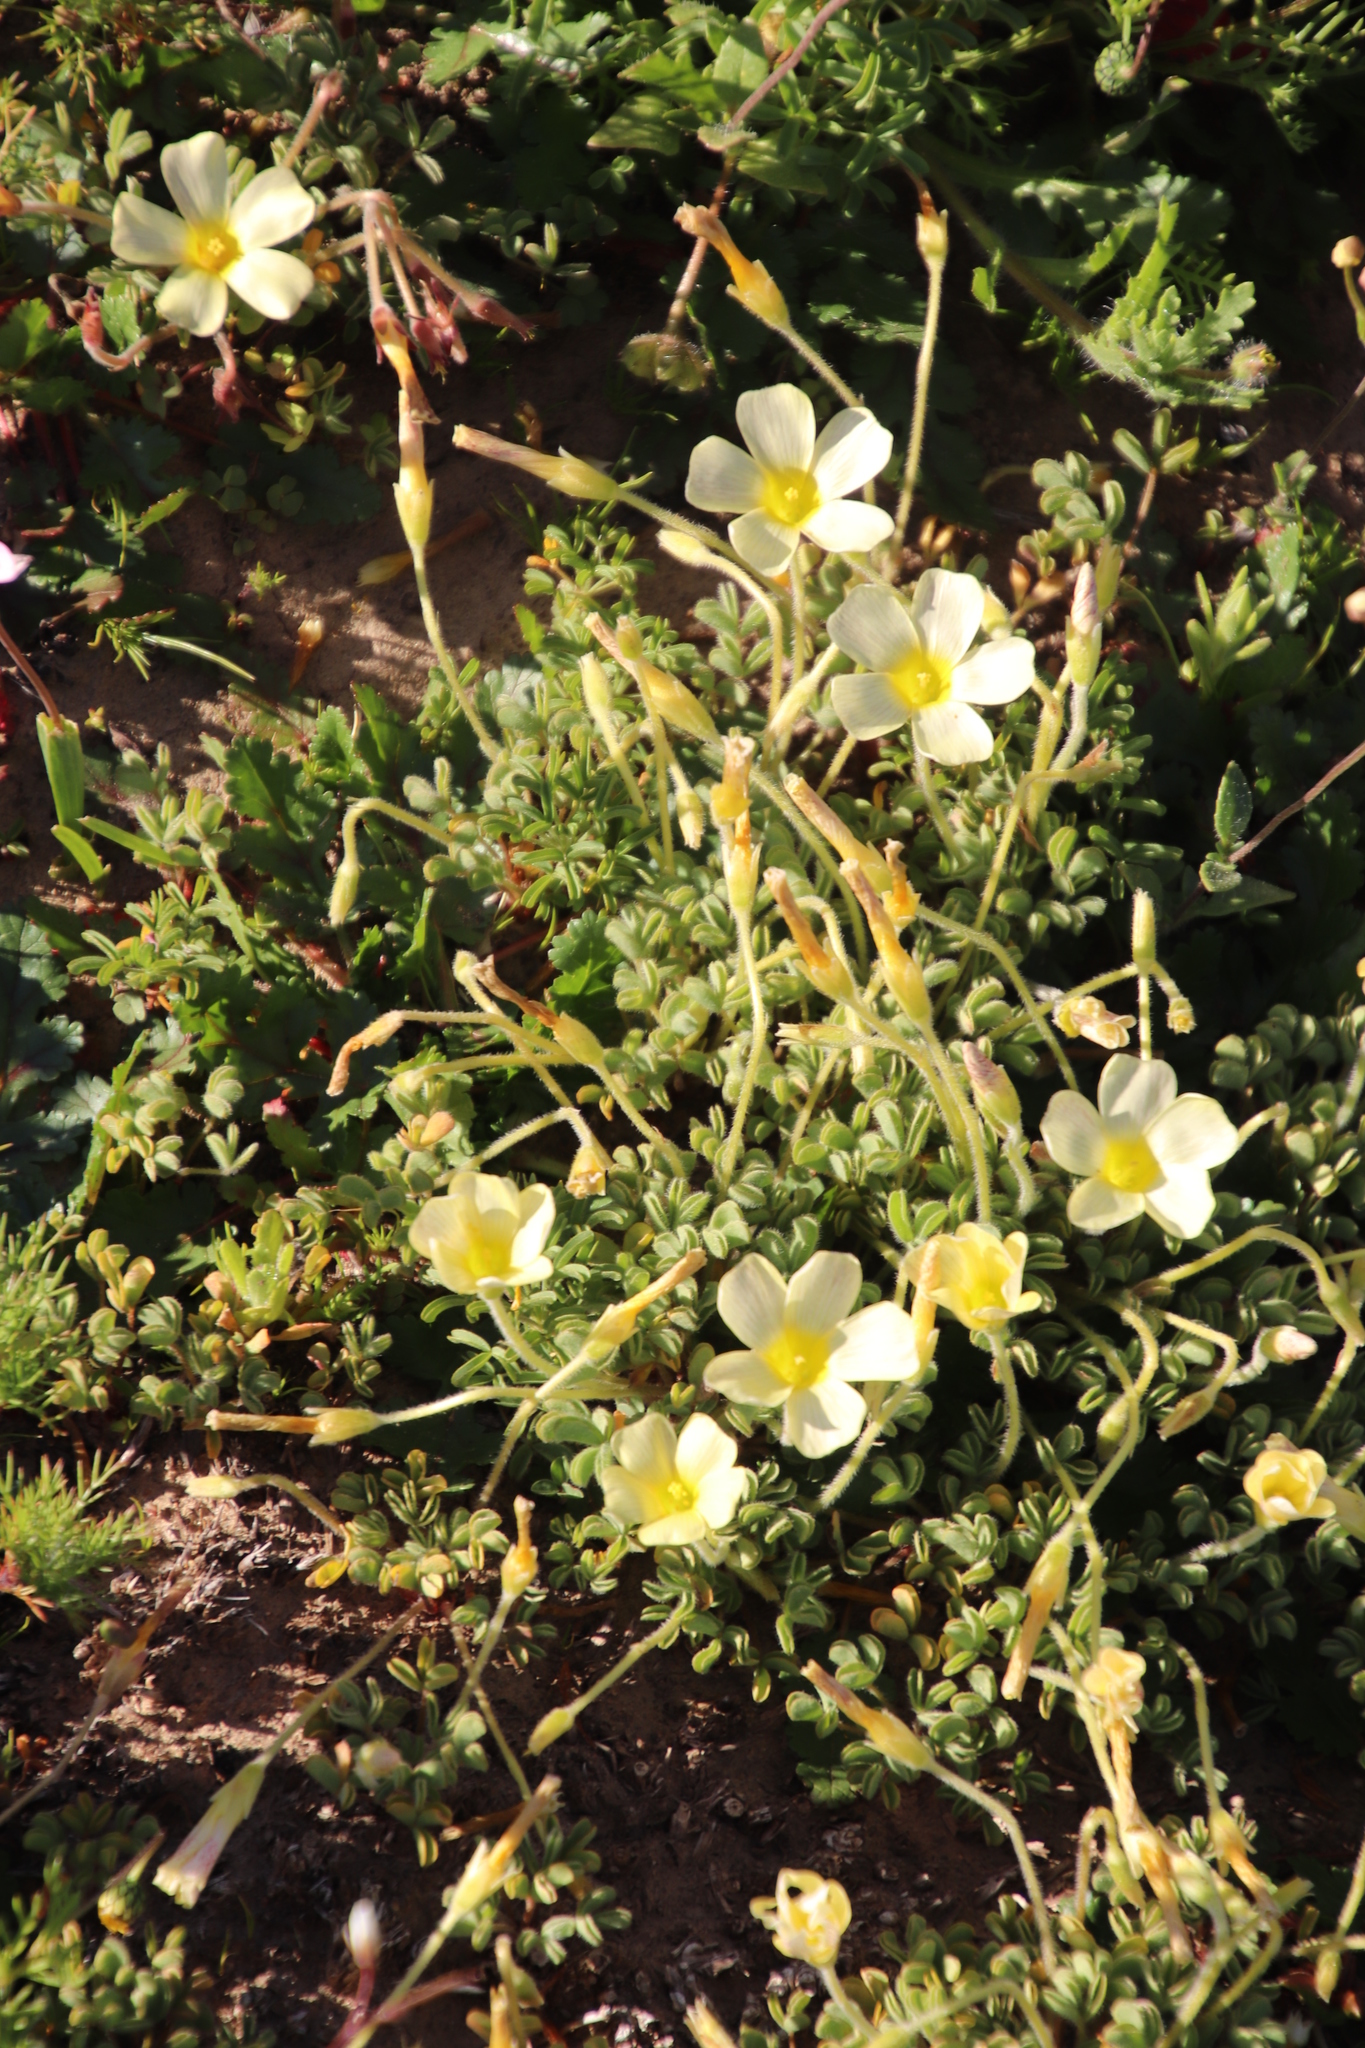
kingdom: Plantae
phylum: Tracheophyta
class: Magnoliopsida
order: Oxalidales
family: Oxalidaceae
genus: Oxalis
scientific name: Oxalis obtusa
